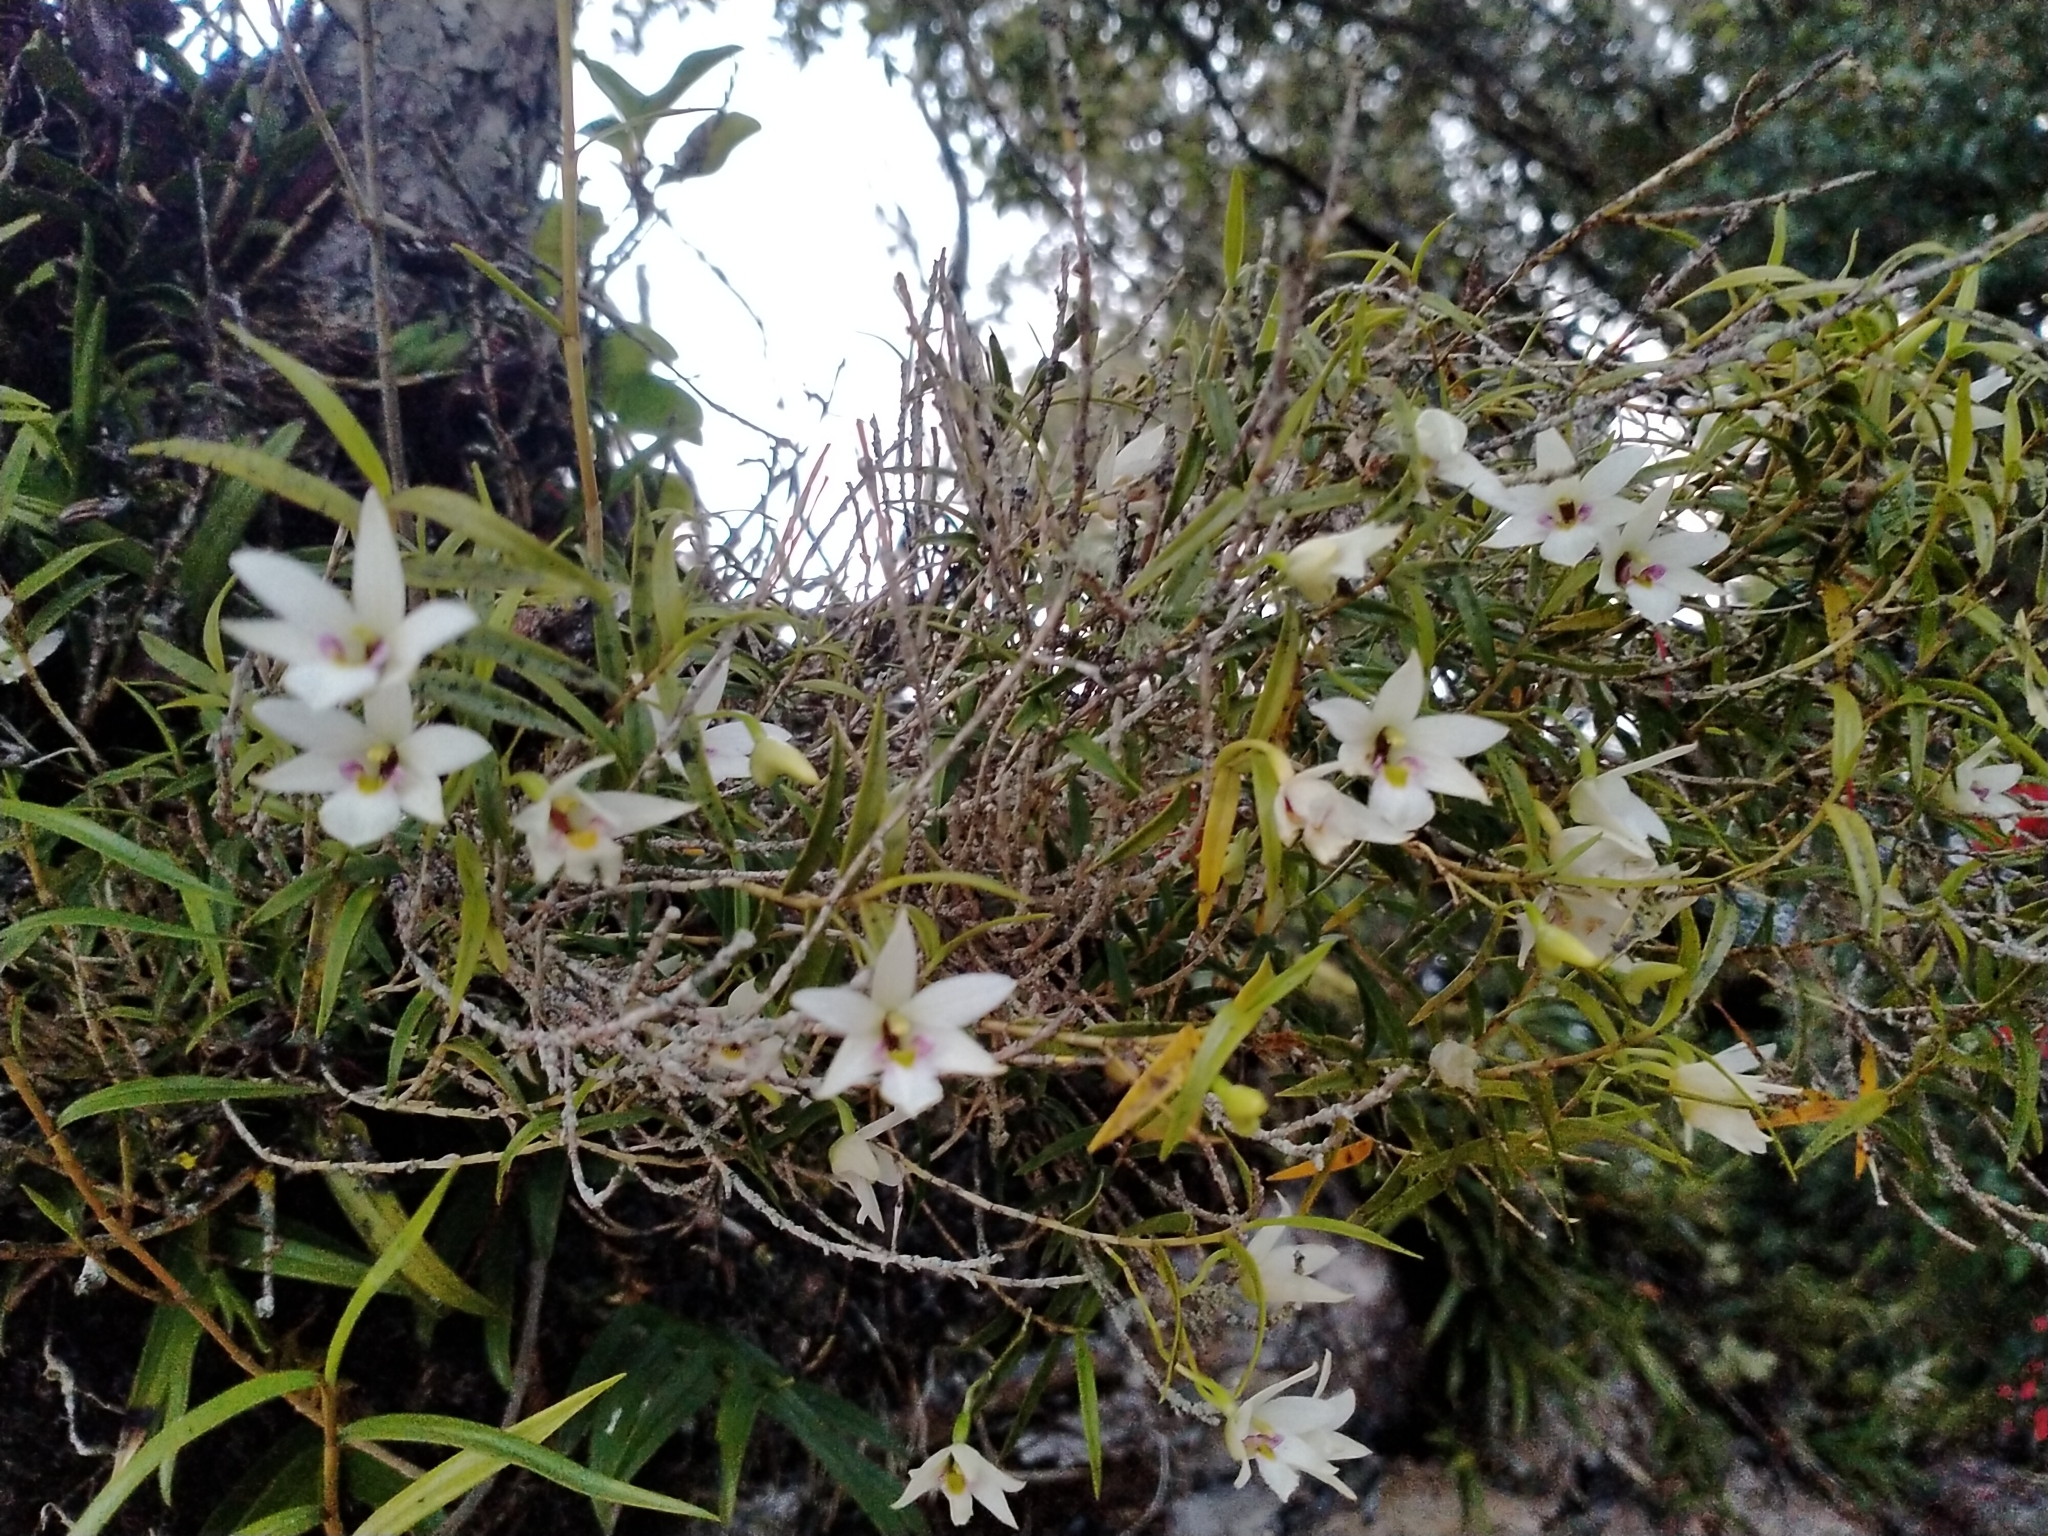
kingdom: Plantae
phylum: Tracheophyta
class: Liliopsida
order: Asparagales
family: Orchidaceae
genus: Dendrobium
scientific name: Dendrobium cunninghamii
